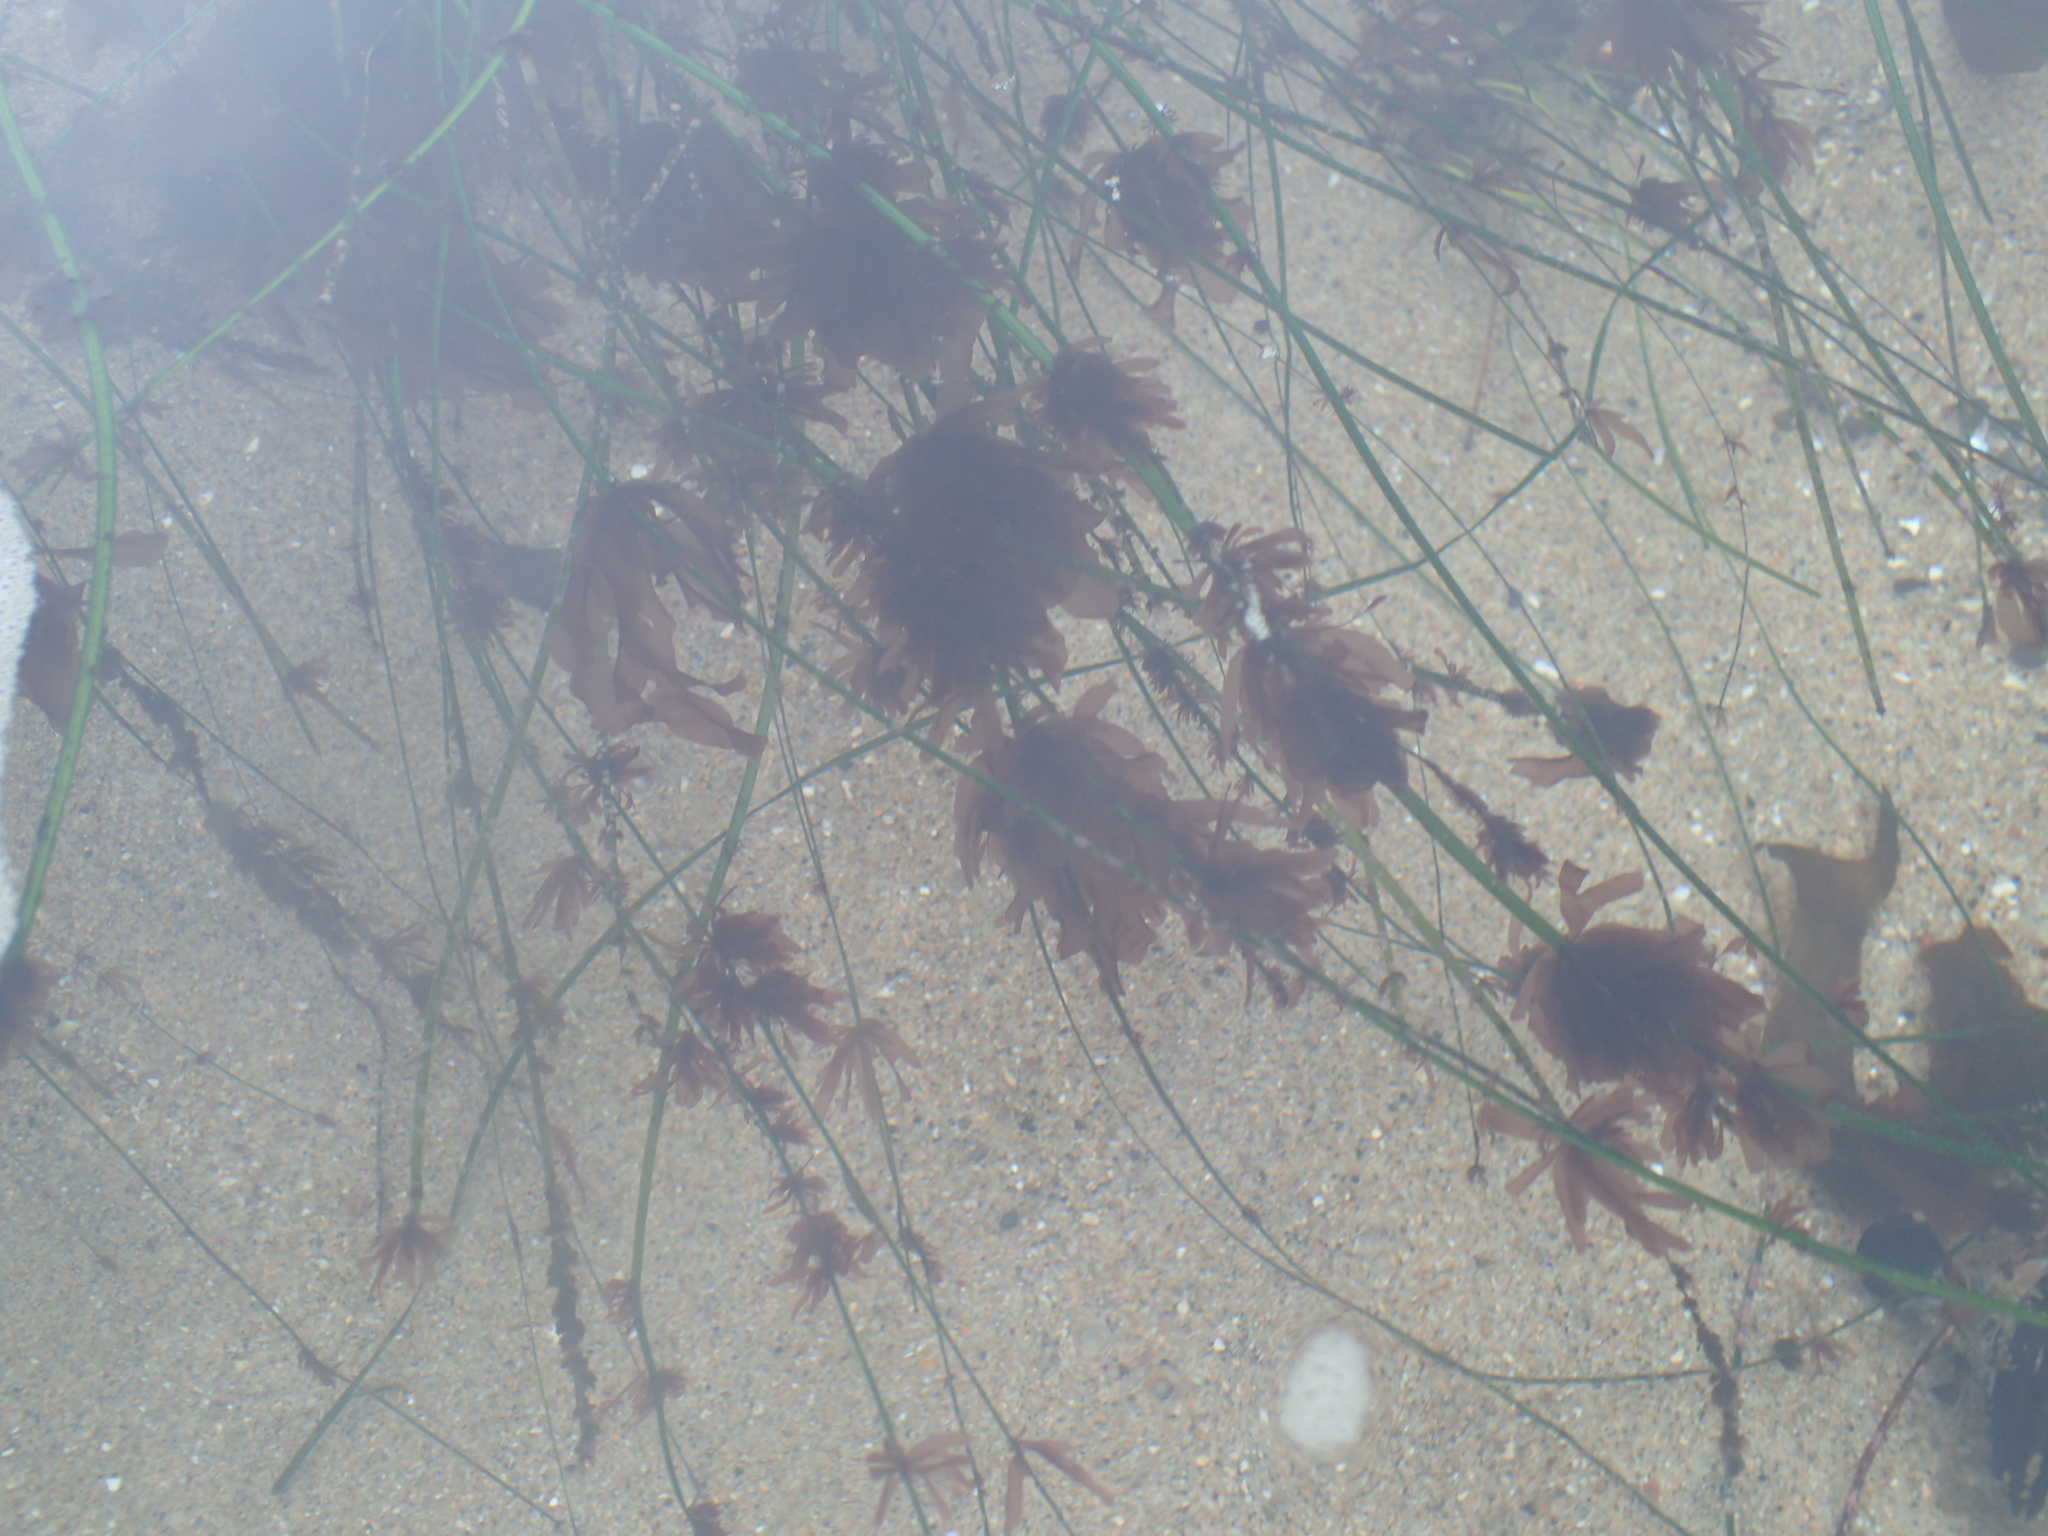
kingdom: Plantae
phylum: Rhodophyta
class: Compsopogonophyceae
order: Erythropeltidales
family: Erythrotrichiaceae
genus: Smithora
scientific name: Smithora naiadum
